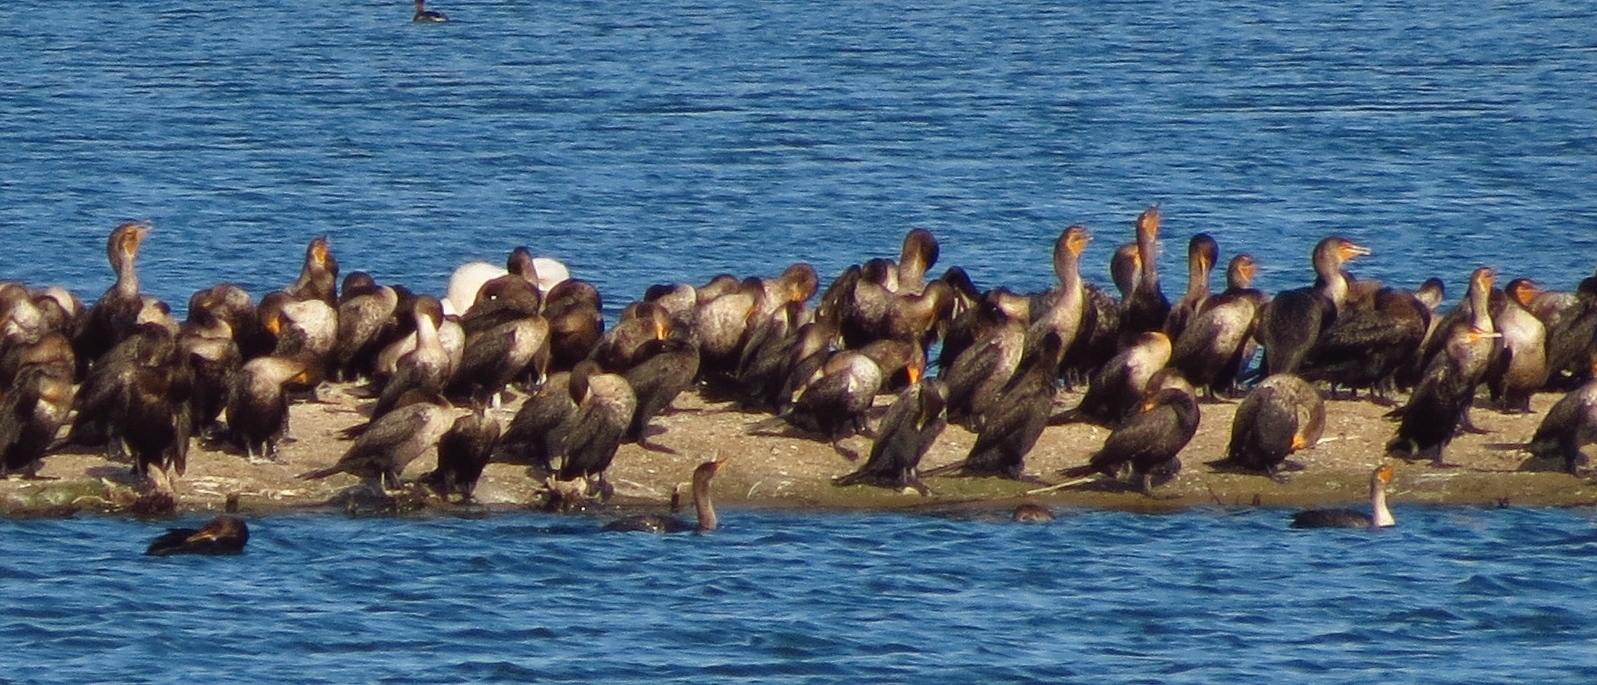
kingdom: Animalia
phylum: Chordata
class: Aves
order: Suliformes
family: Phalacrocoracidae
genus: Phalacrocorax
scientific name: Phalacrocorax auritus
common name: Double-crested cormorant
